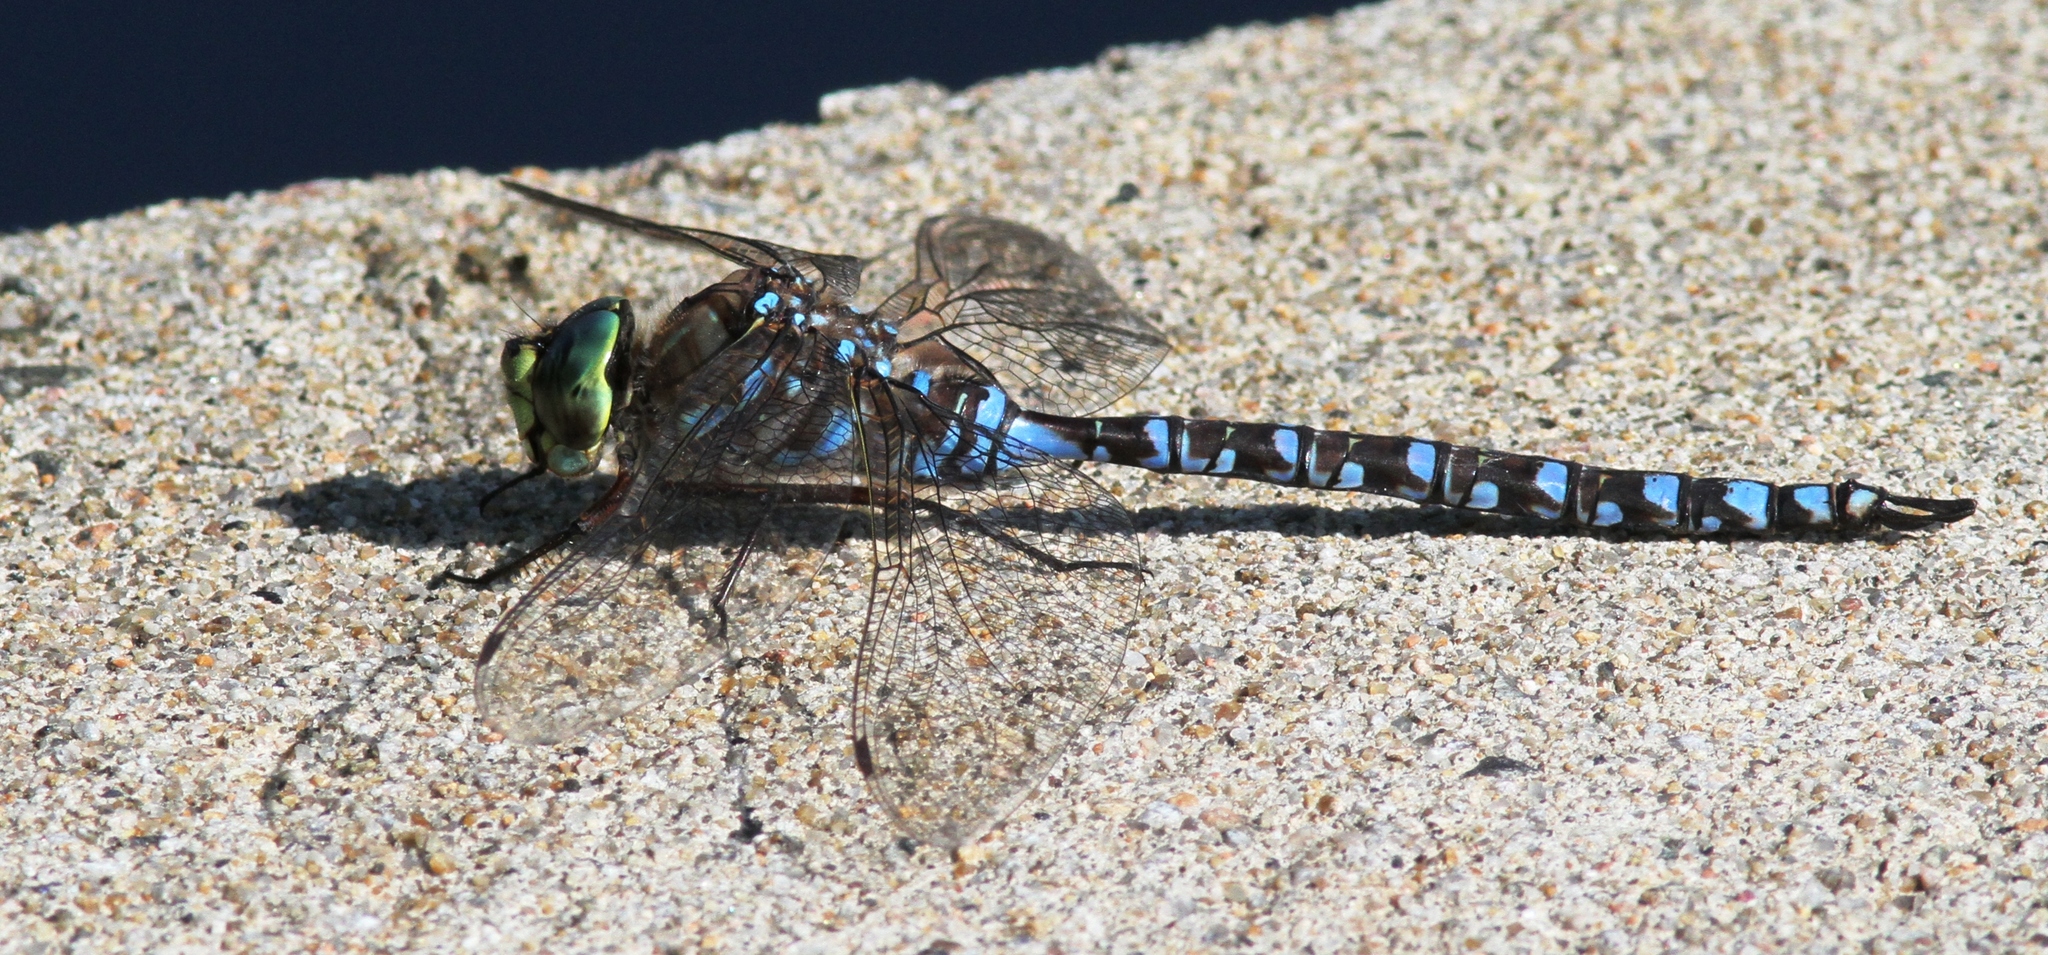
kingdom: Animalia
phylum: Arthropoda
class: Insecta
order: Odonata
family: Aeshnidae
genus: Aeshna
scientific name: Aeshna eremita
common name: Lake darner
